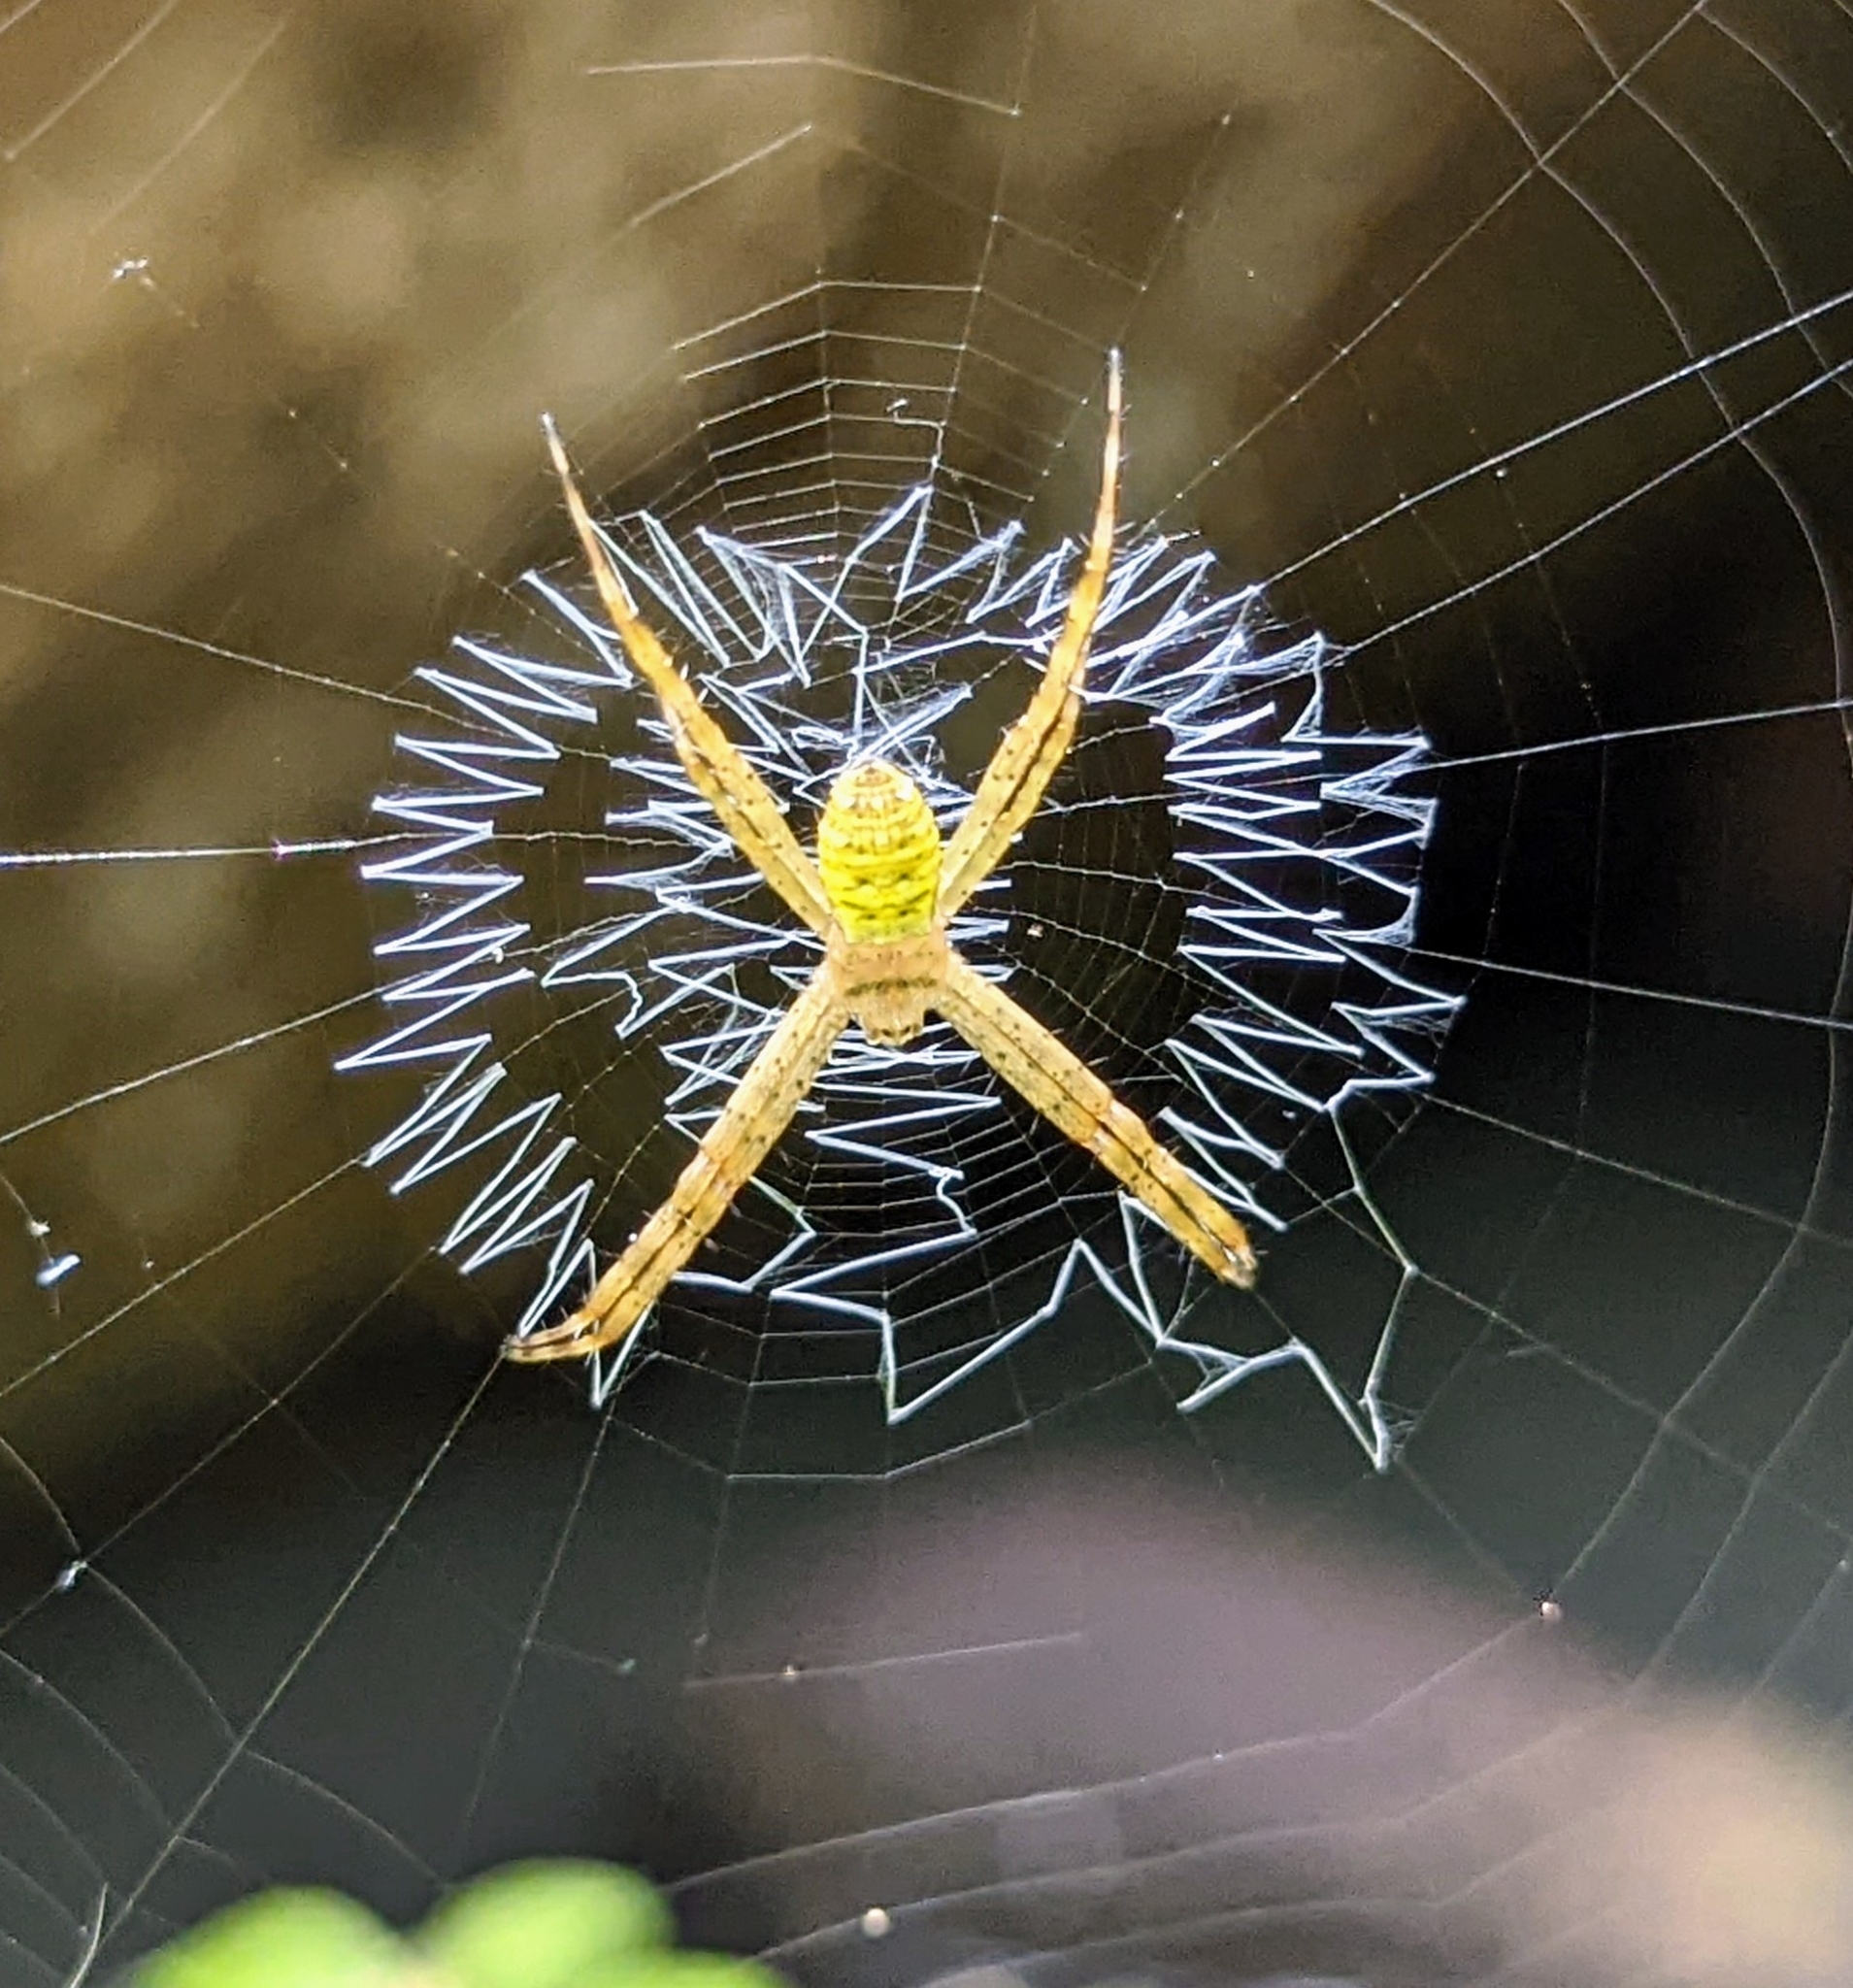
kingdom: Animalia
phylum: Arthropoda
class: Arachnida
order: Araneae
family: Araneidae
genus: Argiope
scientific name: Argiope aemula
